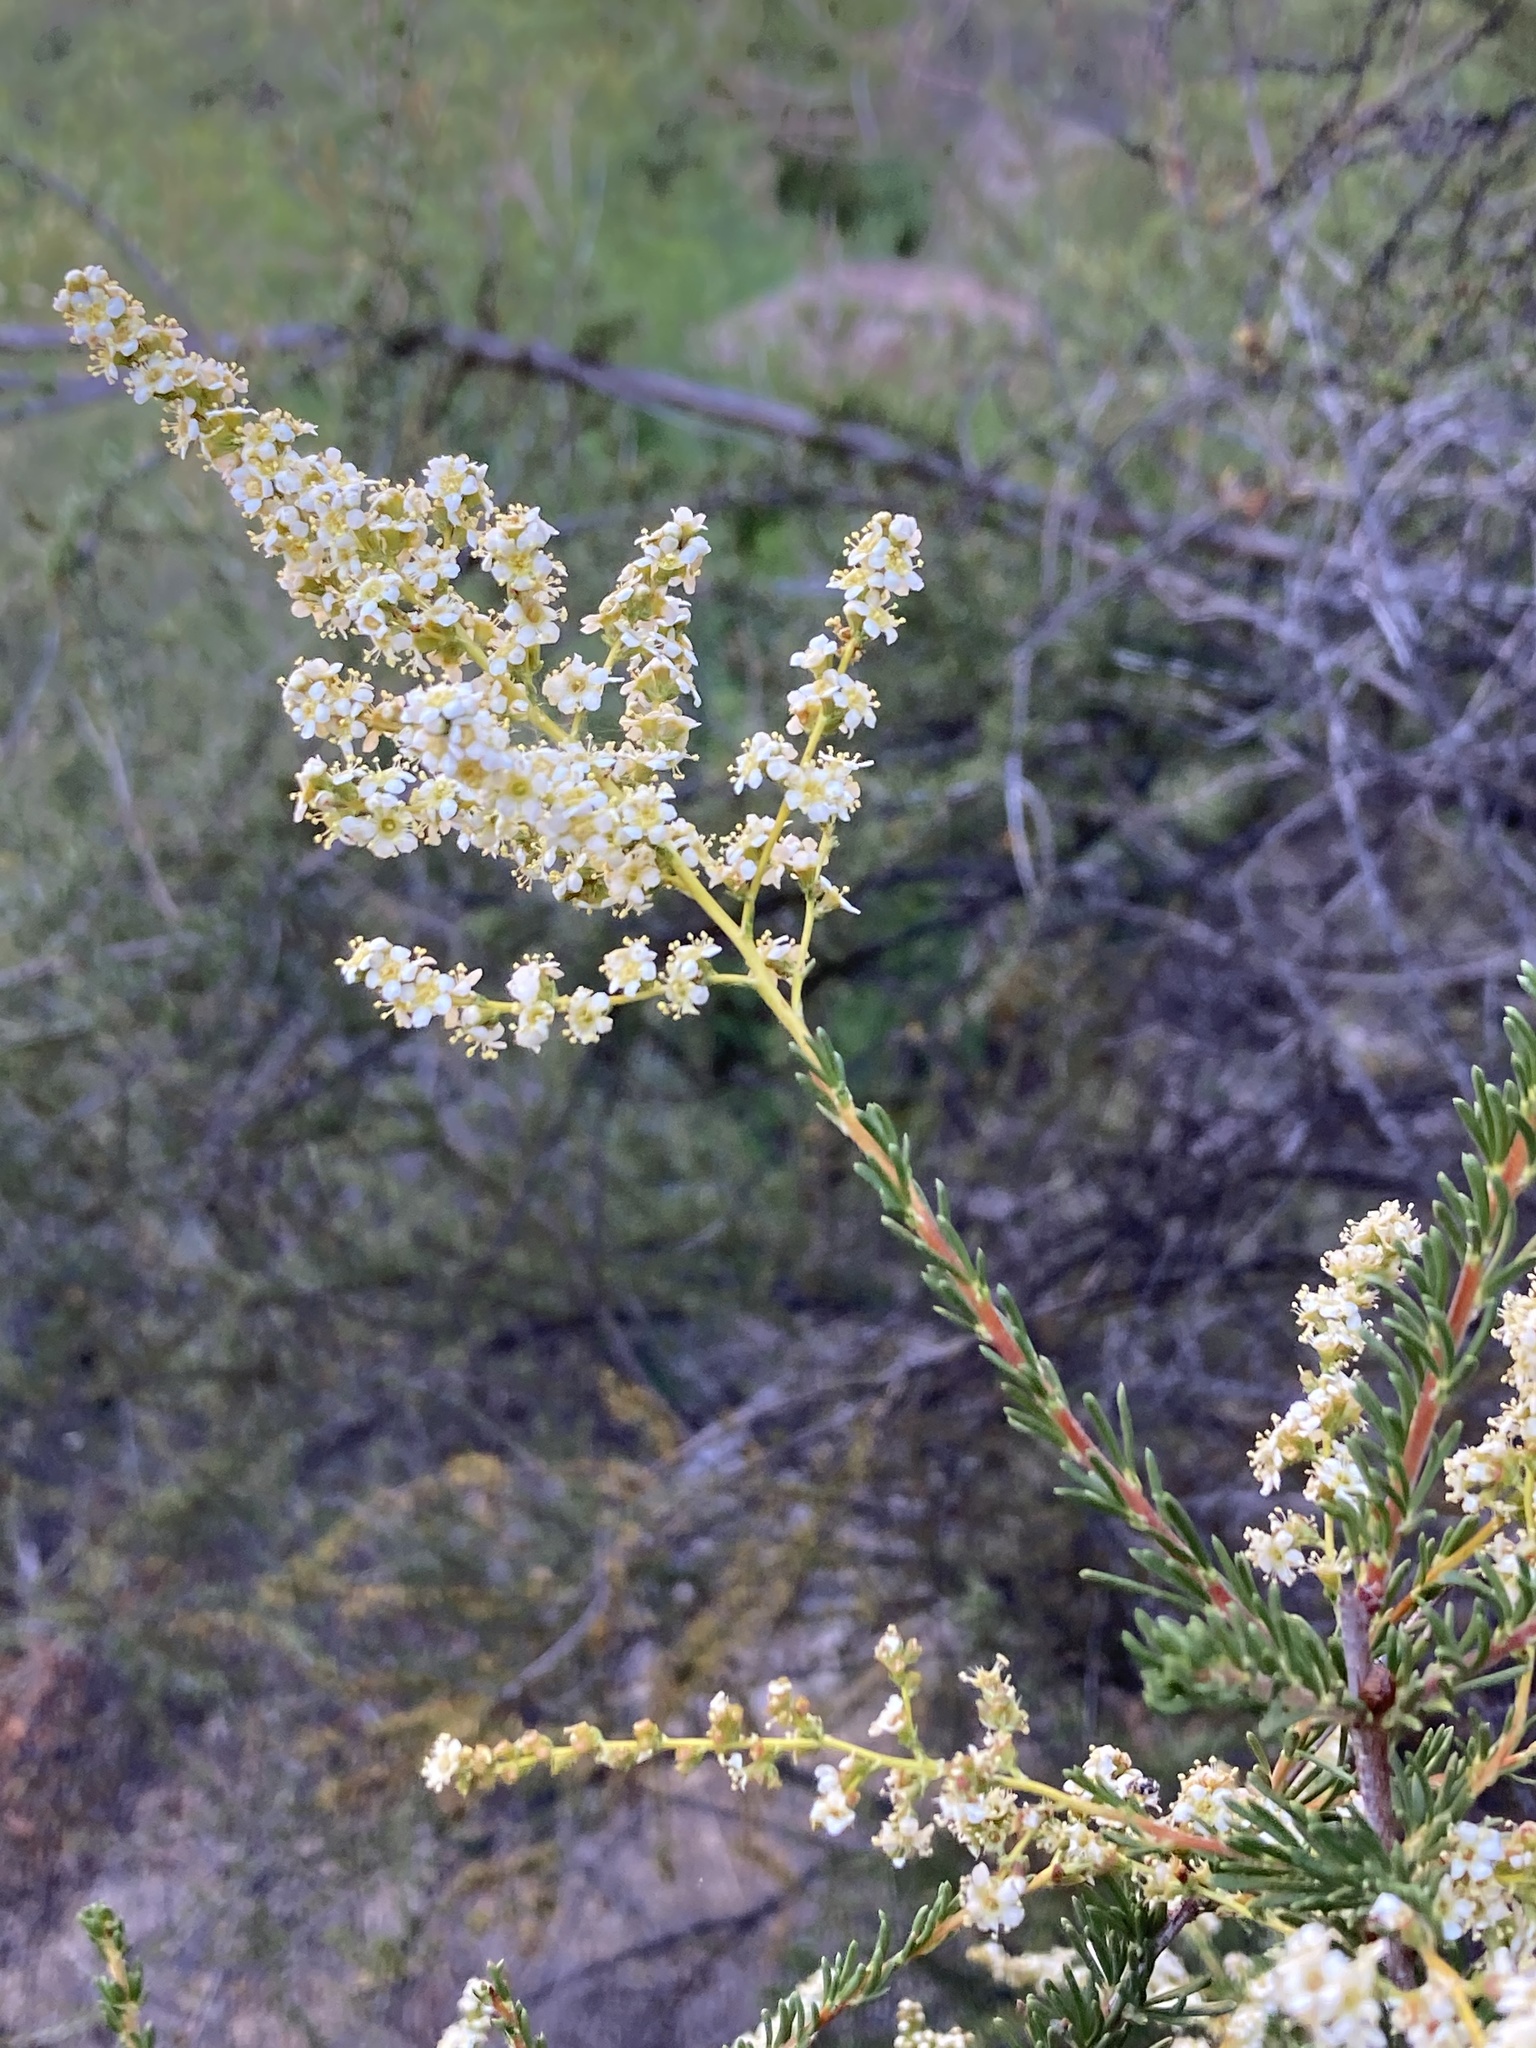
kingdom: Plantae
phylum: Tracheophyta
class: Magnoliopsida
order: Rosales
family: Rosaceae
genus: Adenostoma
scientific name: Adenostoma fasciculatum
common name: Chamise
